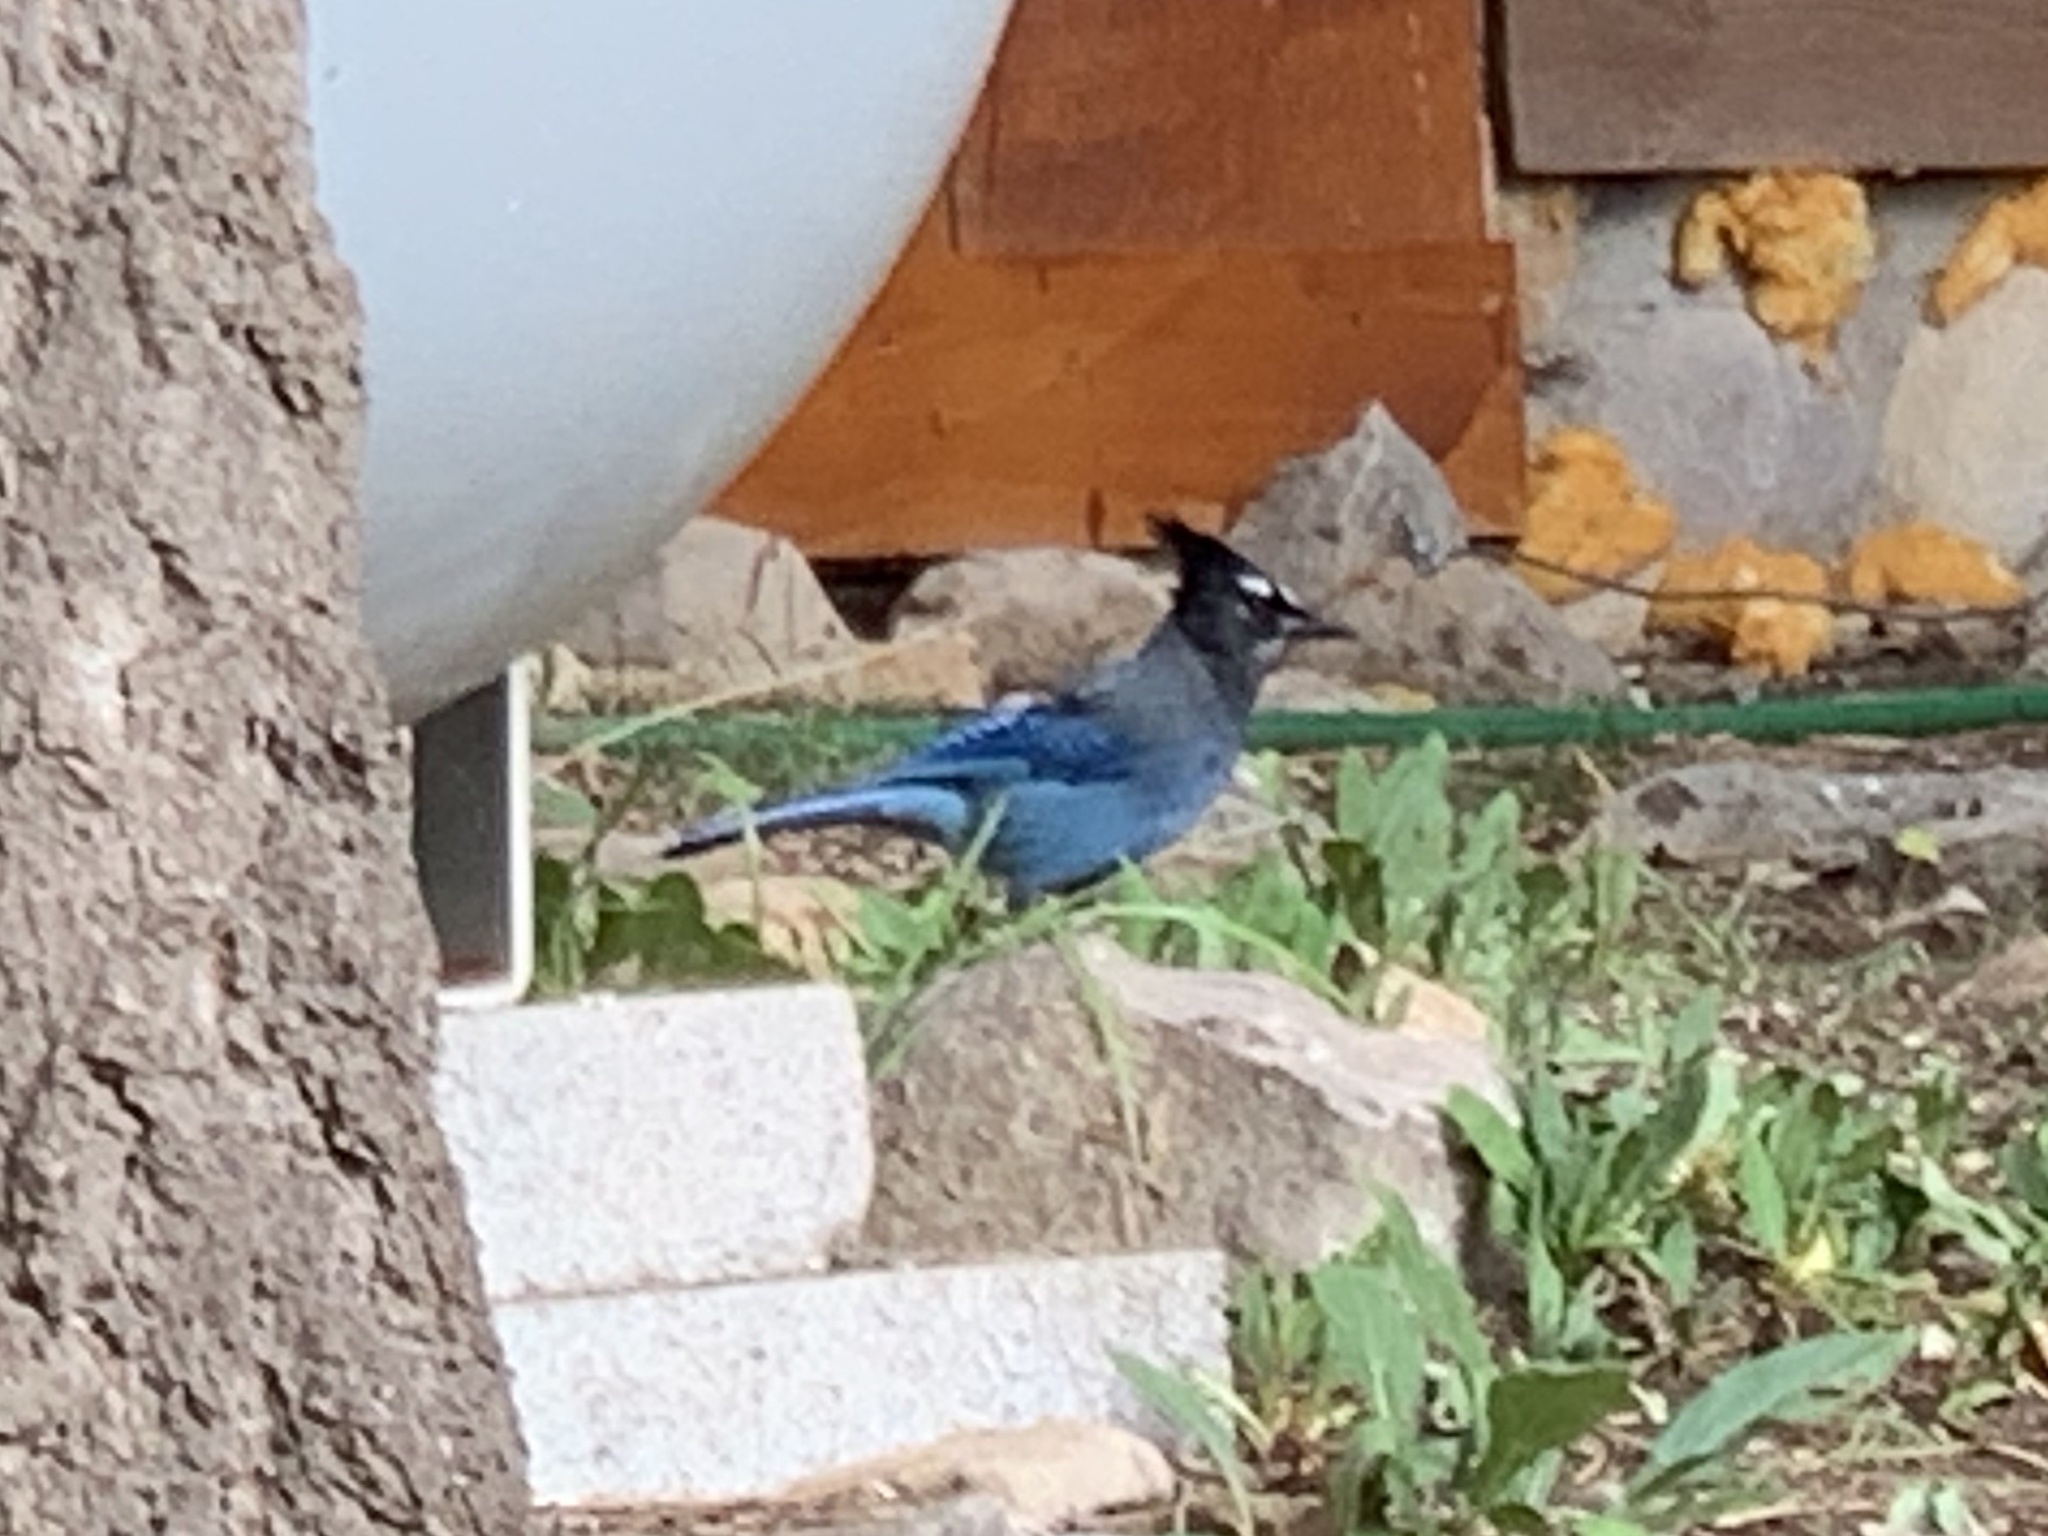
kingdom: Animalia
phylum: Chordata
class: Aves
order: Passeriformes
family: Corvidae
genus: Cyanocitta
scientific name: Cyanocitta stelleri
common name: Steller's jay
